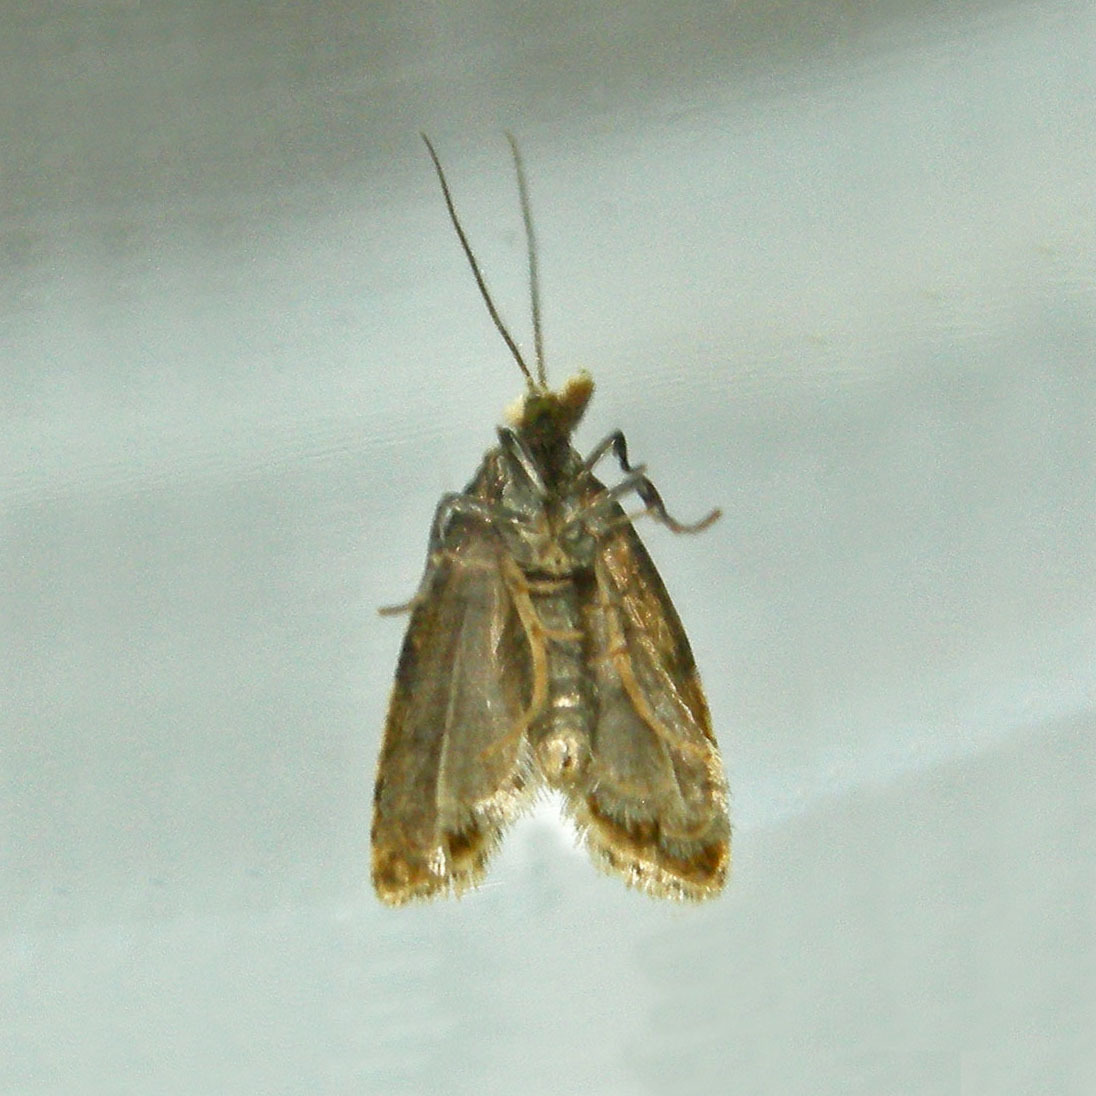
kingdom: Animalia
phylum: Arthropoda
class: Insecta
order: Lepidoptera
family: Tortricidae
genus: Aethes
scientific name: Aethes angulatana
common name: Angular aethes moth
